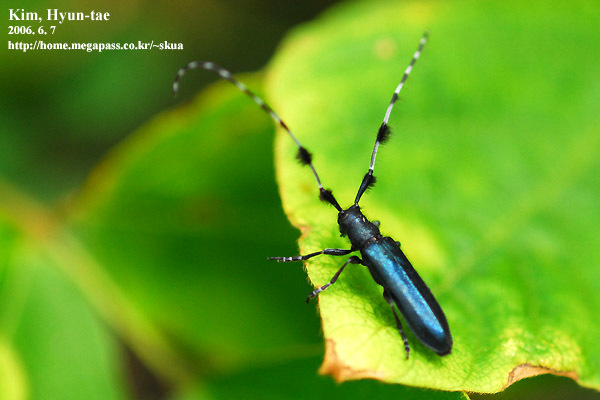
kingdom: Animalia
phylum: Arthropoda
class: Insecta
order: Coleoptera
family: Cerambycidae
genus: Agapanthia
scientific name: Agapanthia amurensis
